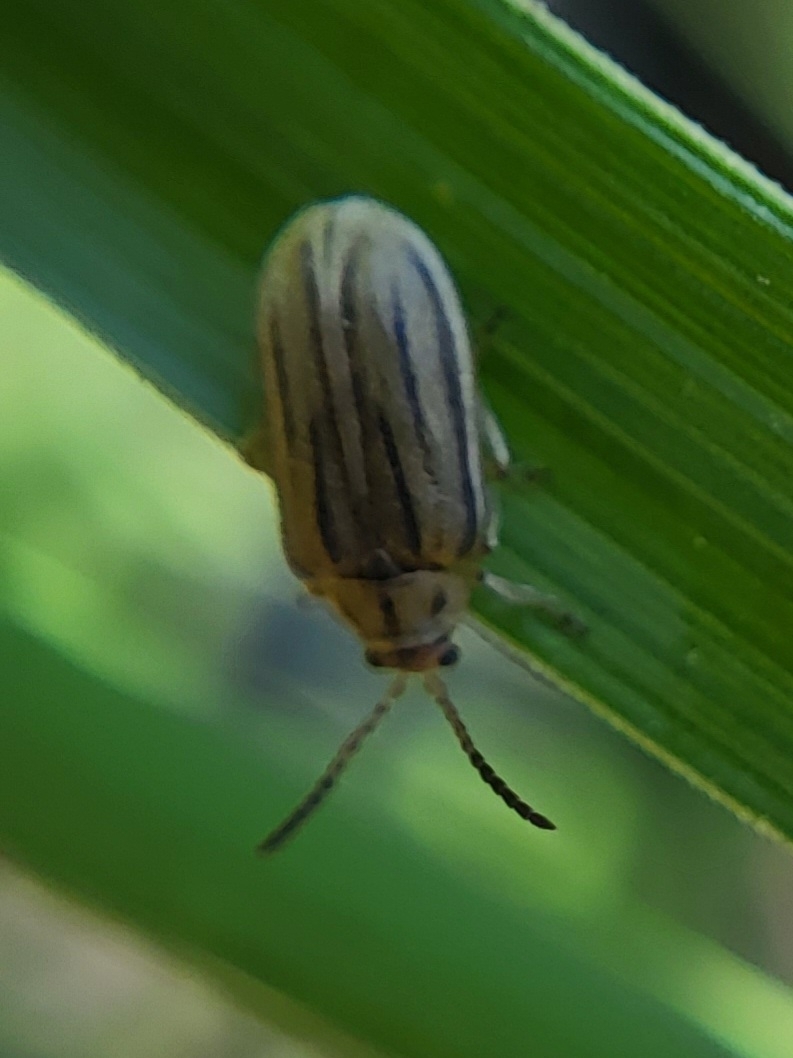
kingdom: Animalia
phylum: Arthropoda
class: Insecta
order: Coleoptera
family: Chrysomelidae
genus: Ophraella
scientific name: Ophraella communa
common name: Ragweed leaf beetle
